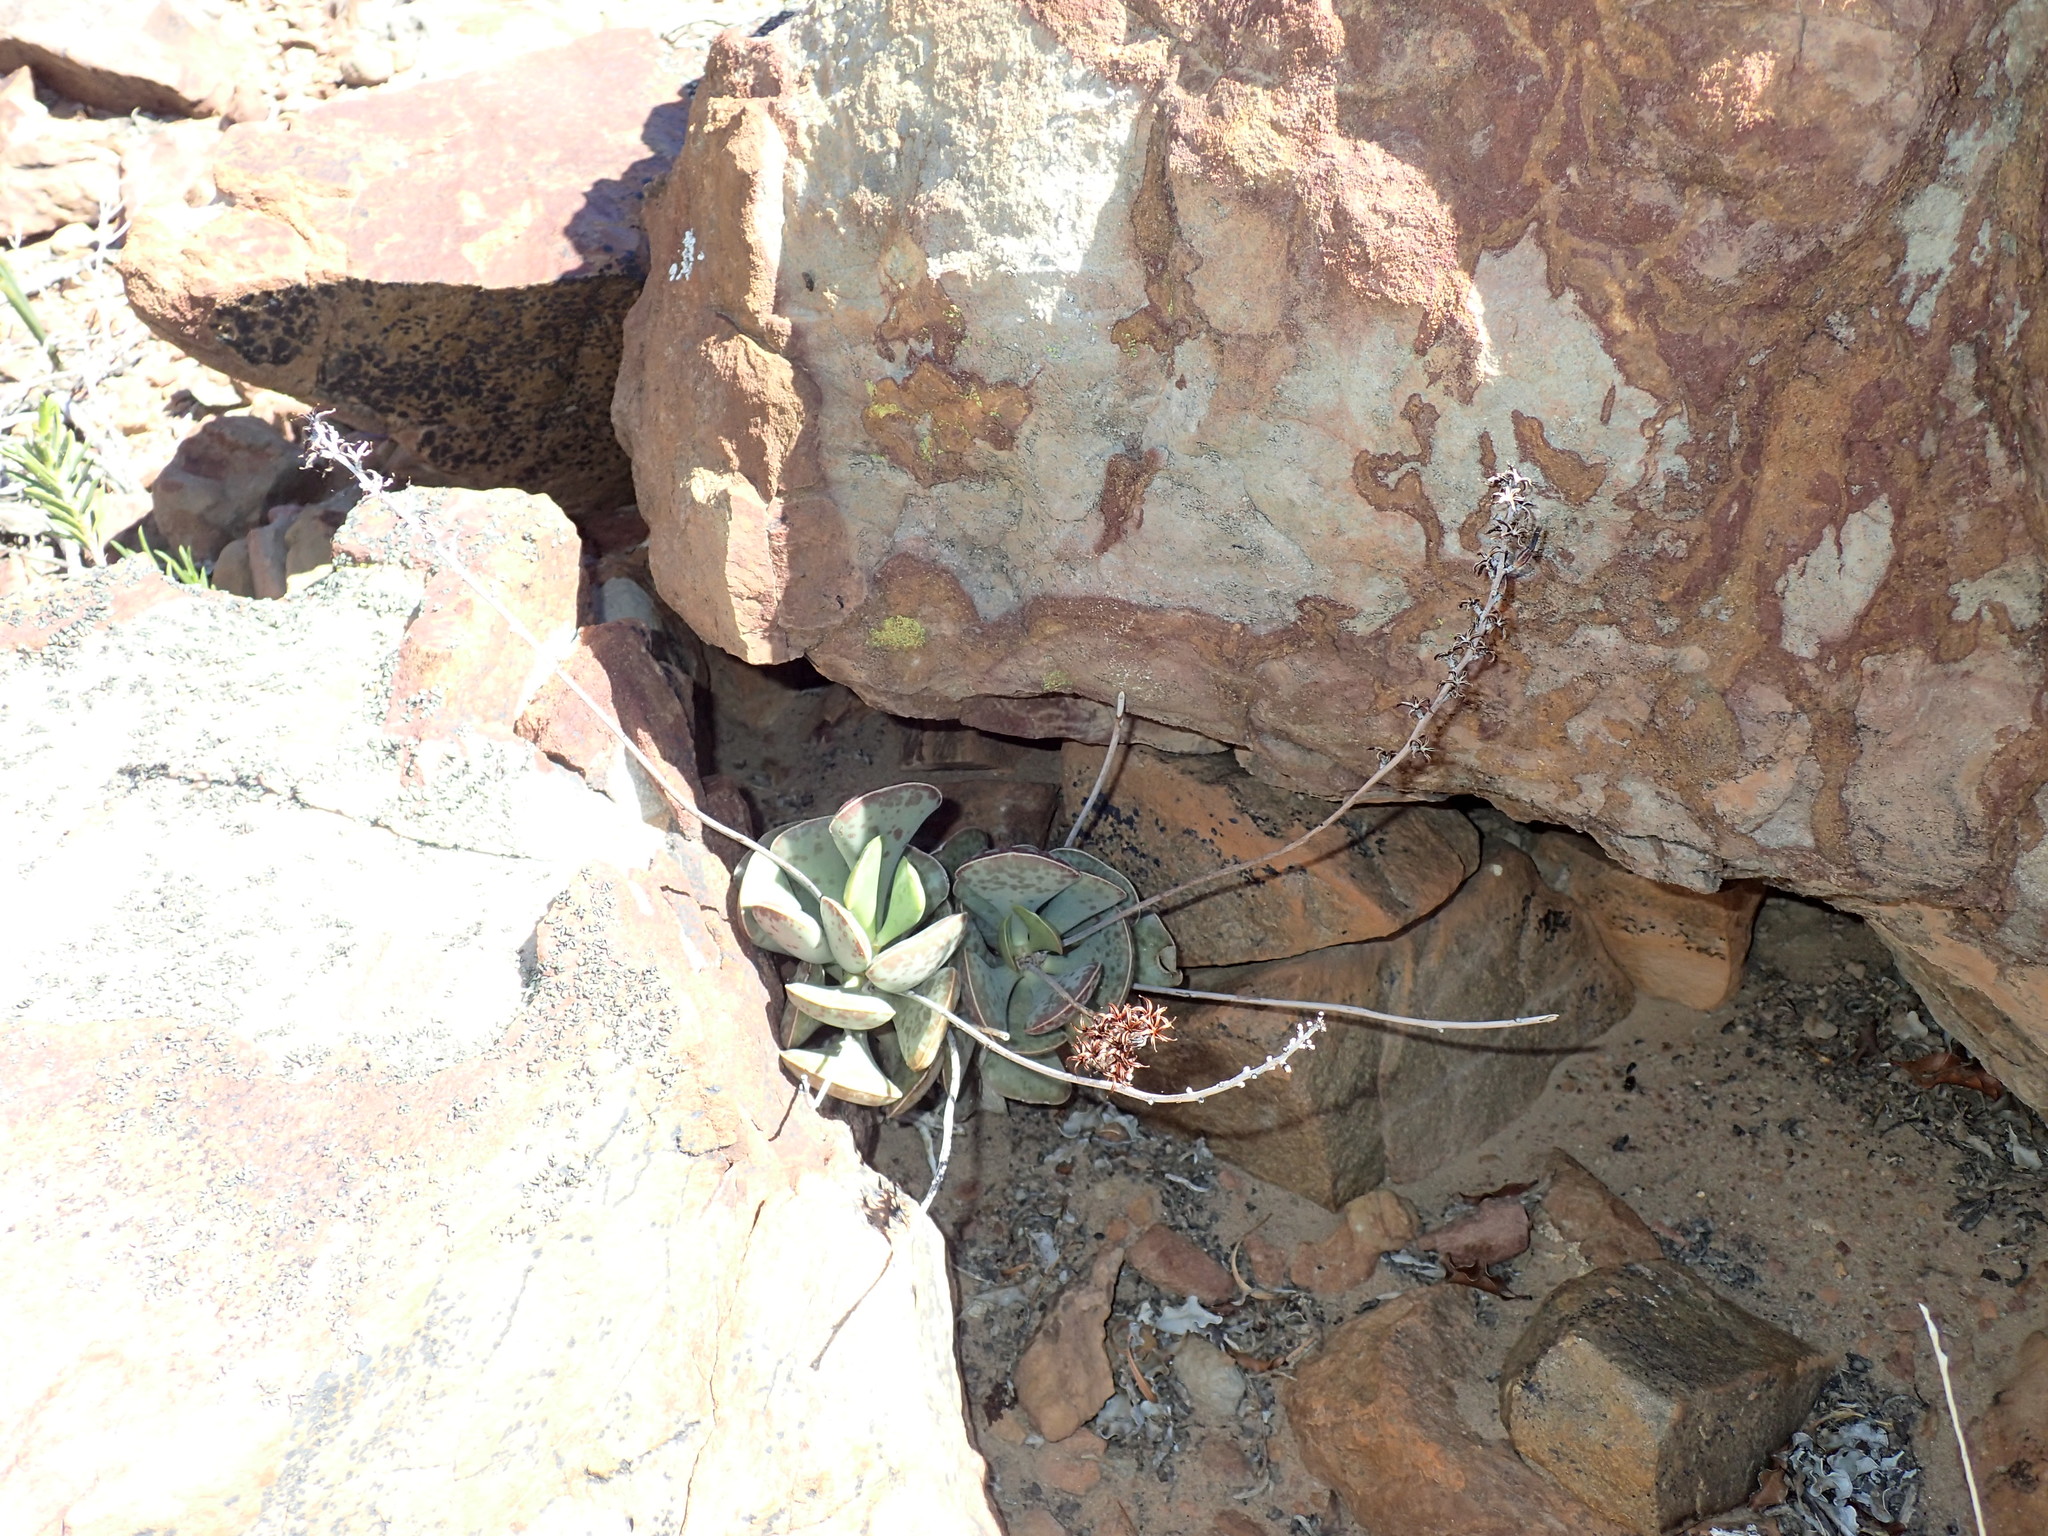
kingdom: Plantae
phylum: Tracheophyta
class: Magnoliopsida
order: Saxifragales
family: Crassulaceae
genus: Adromischus
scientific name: Adromischus triflorus
